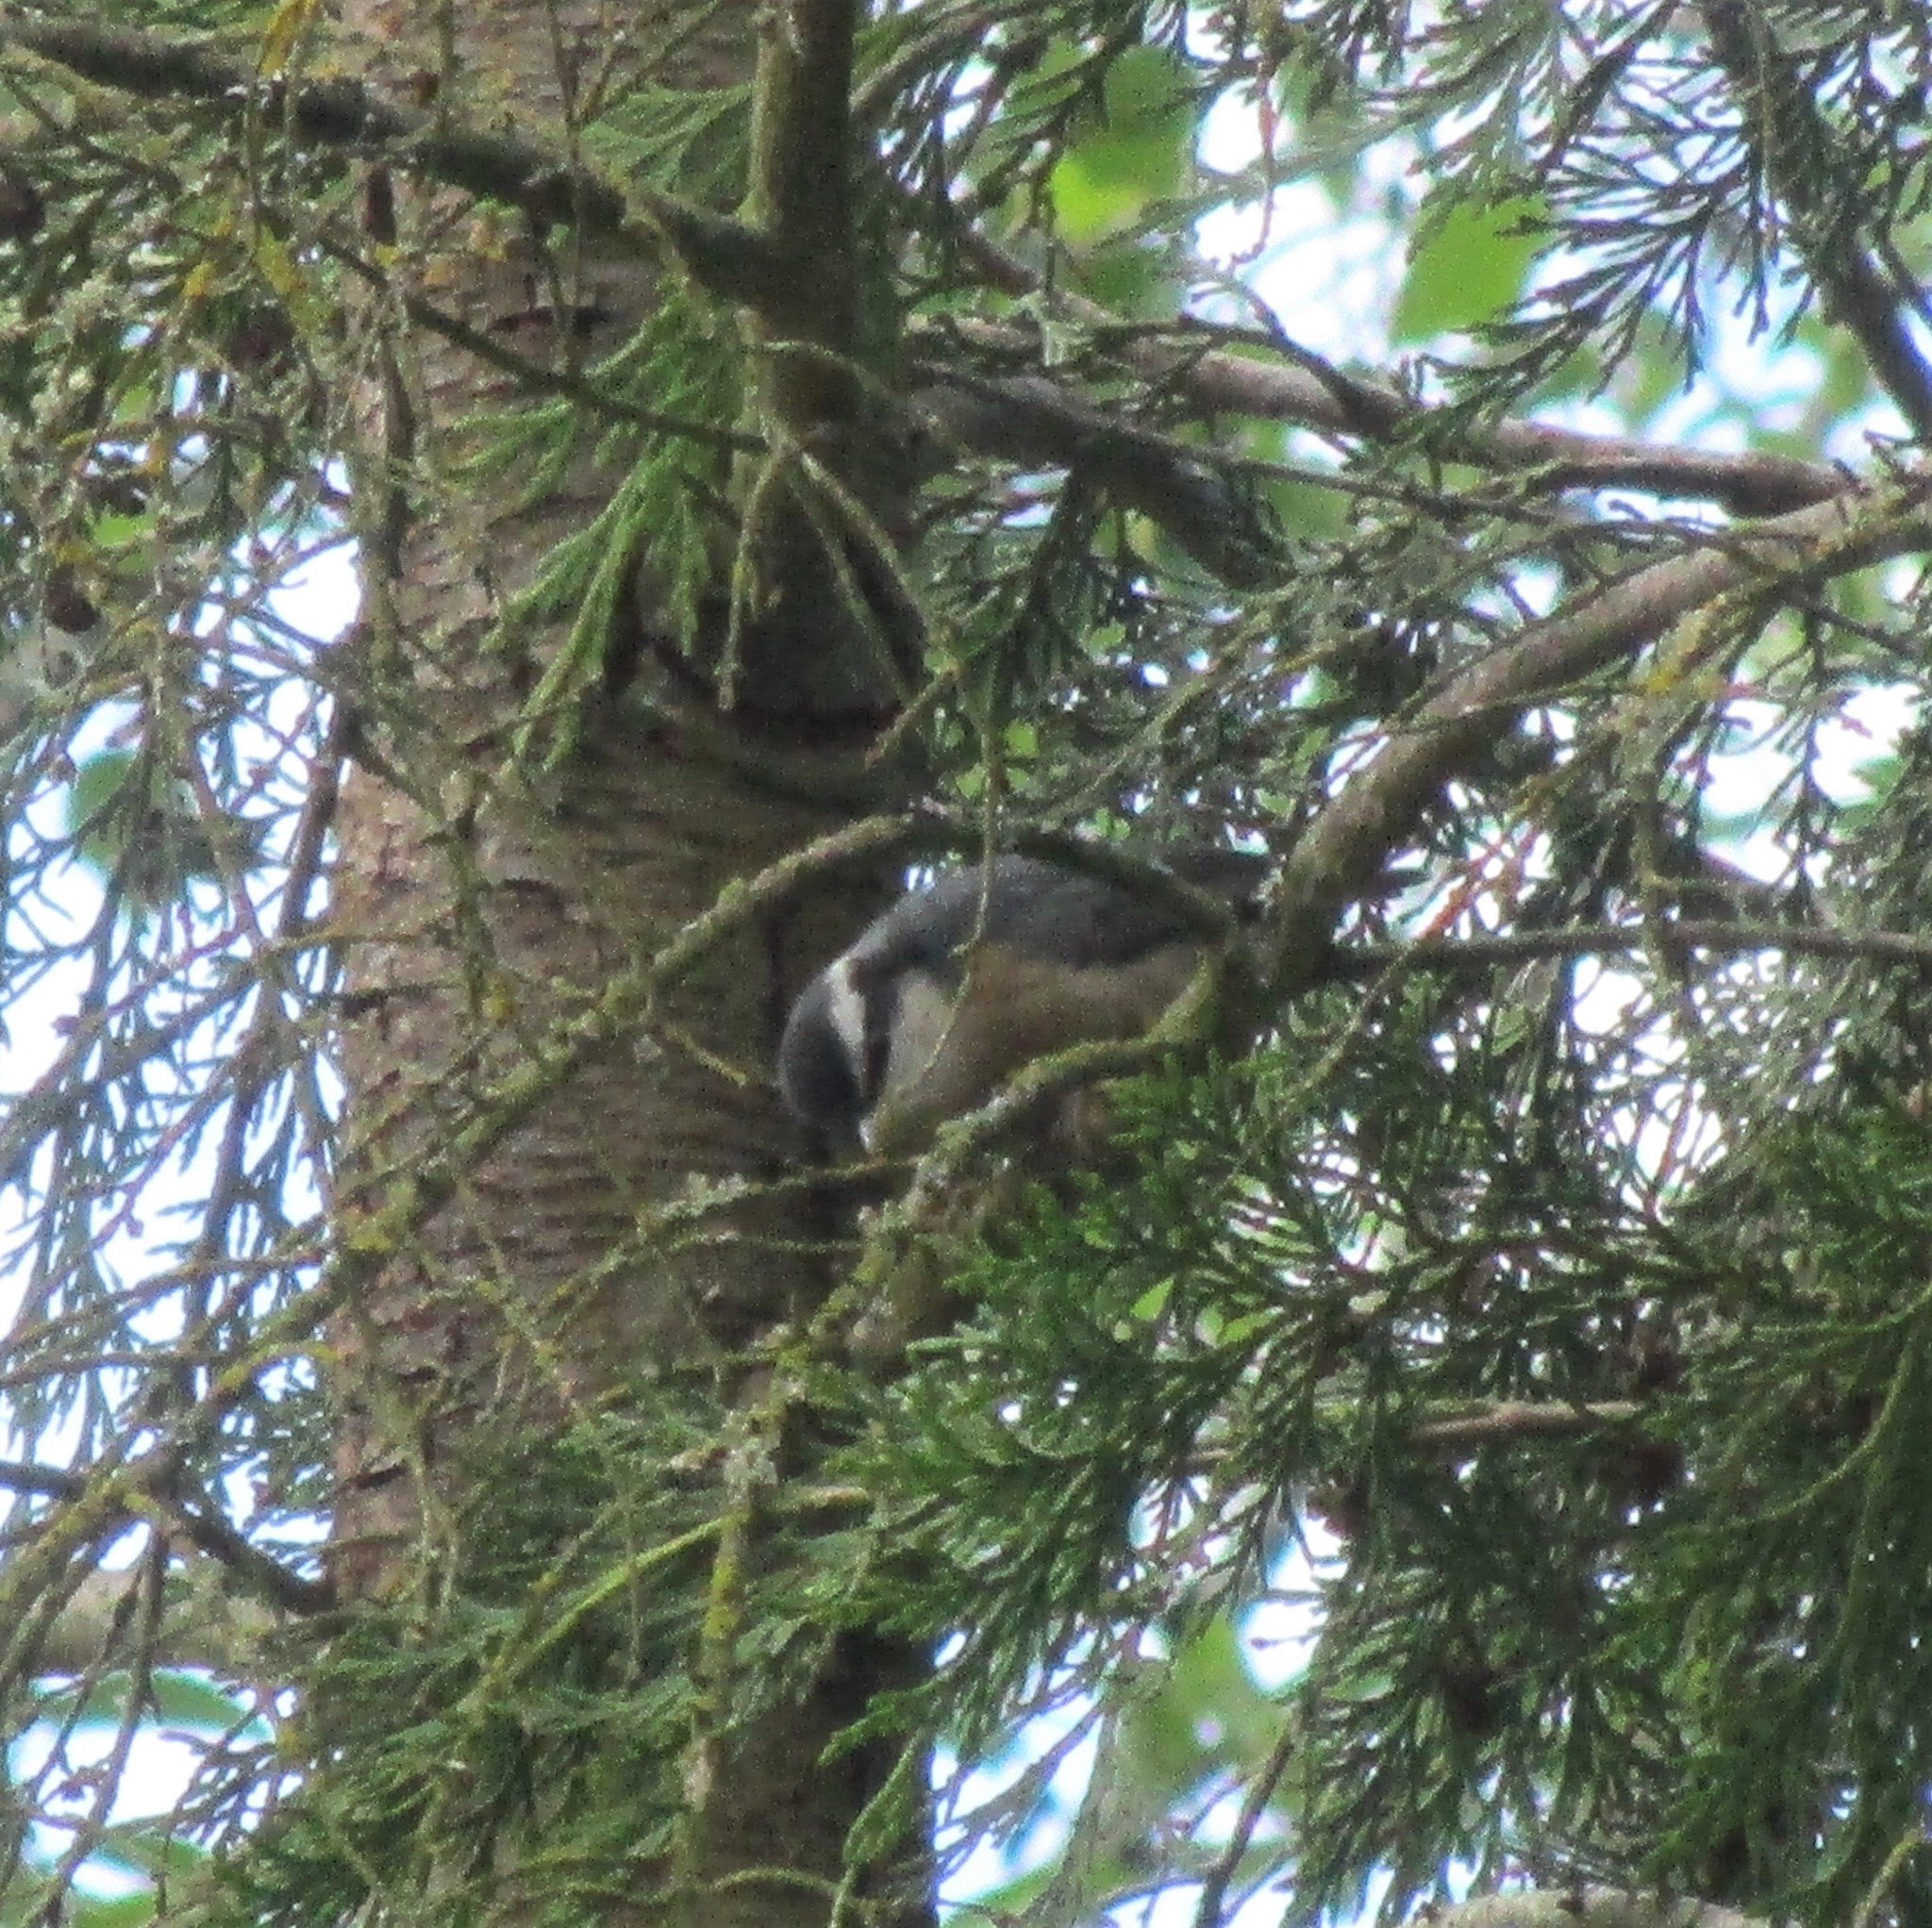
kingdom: Animalia
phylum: Chordata
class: Aves
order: Passeriformes
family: Sittidae
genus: Sitta
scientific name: Sitta canadensis
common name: Red-breasted nuthatch
